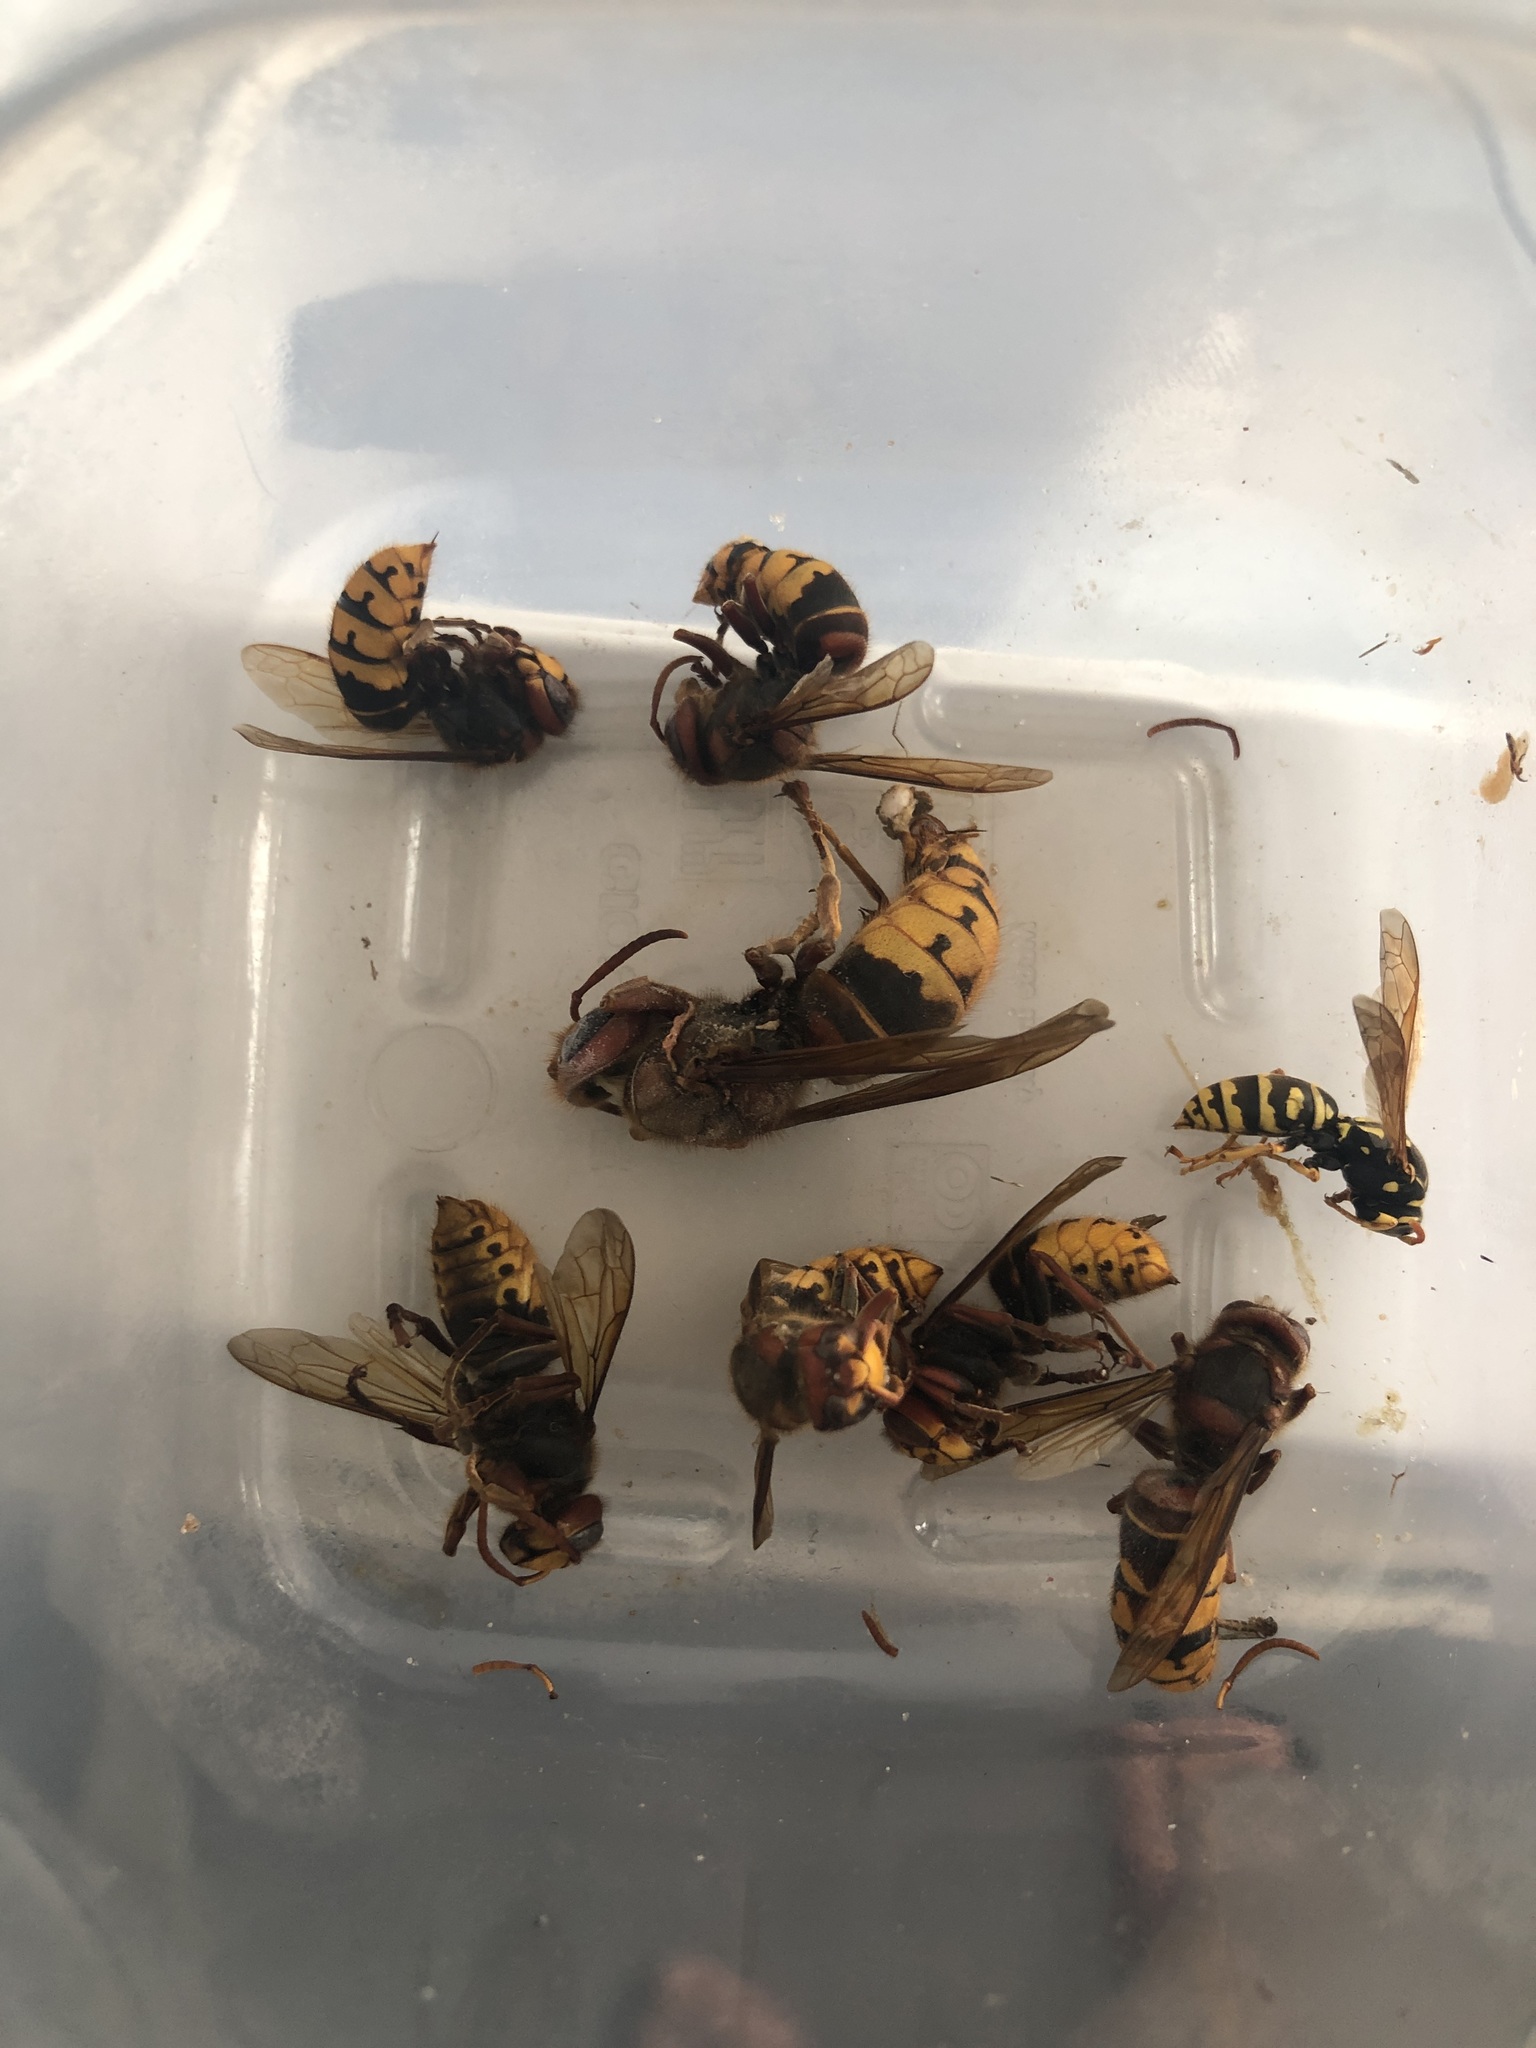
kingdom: Animalia
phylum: Arthropoda
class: Insecta
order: Hymenoptera
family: Vespidae
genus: Vespa
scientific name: Vespa crabro
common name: Hornet
